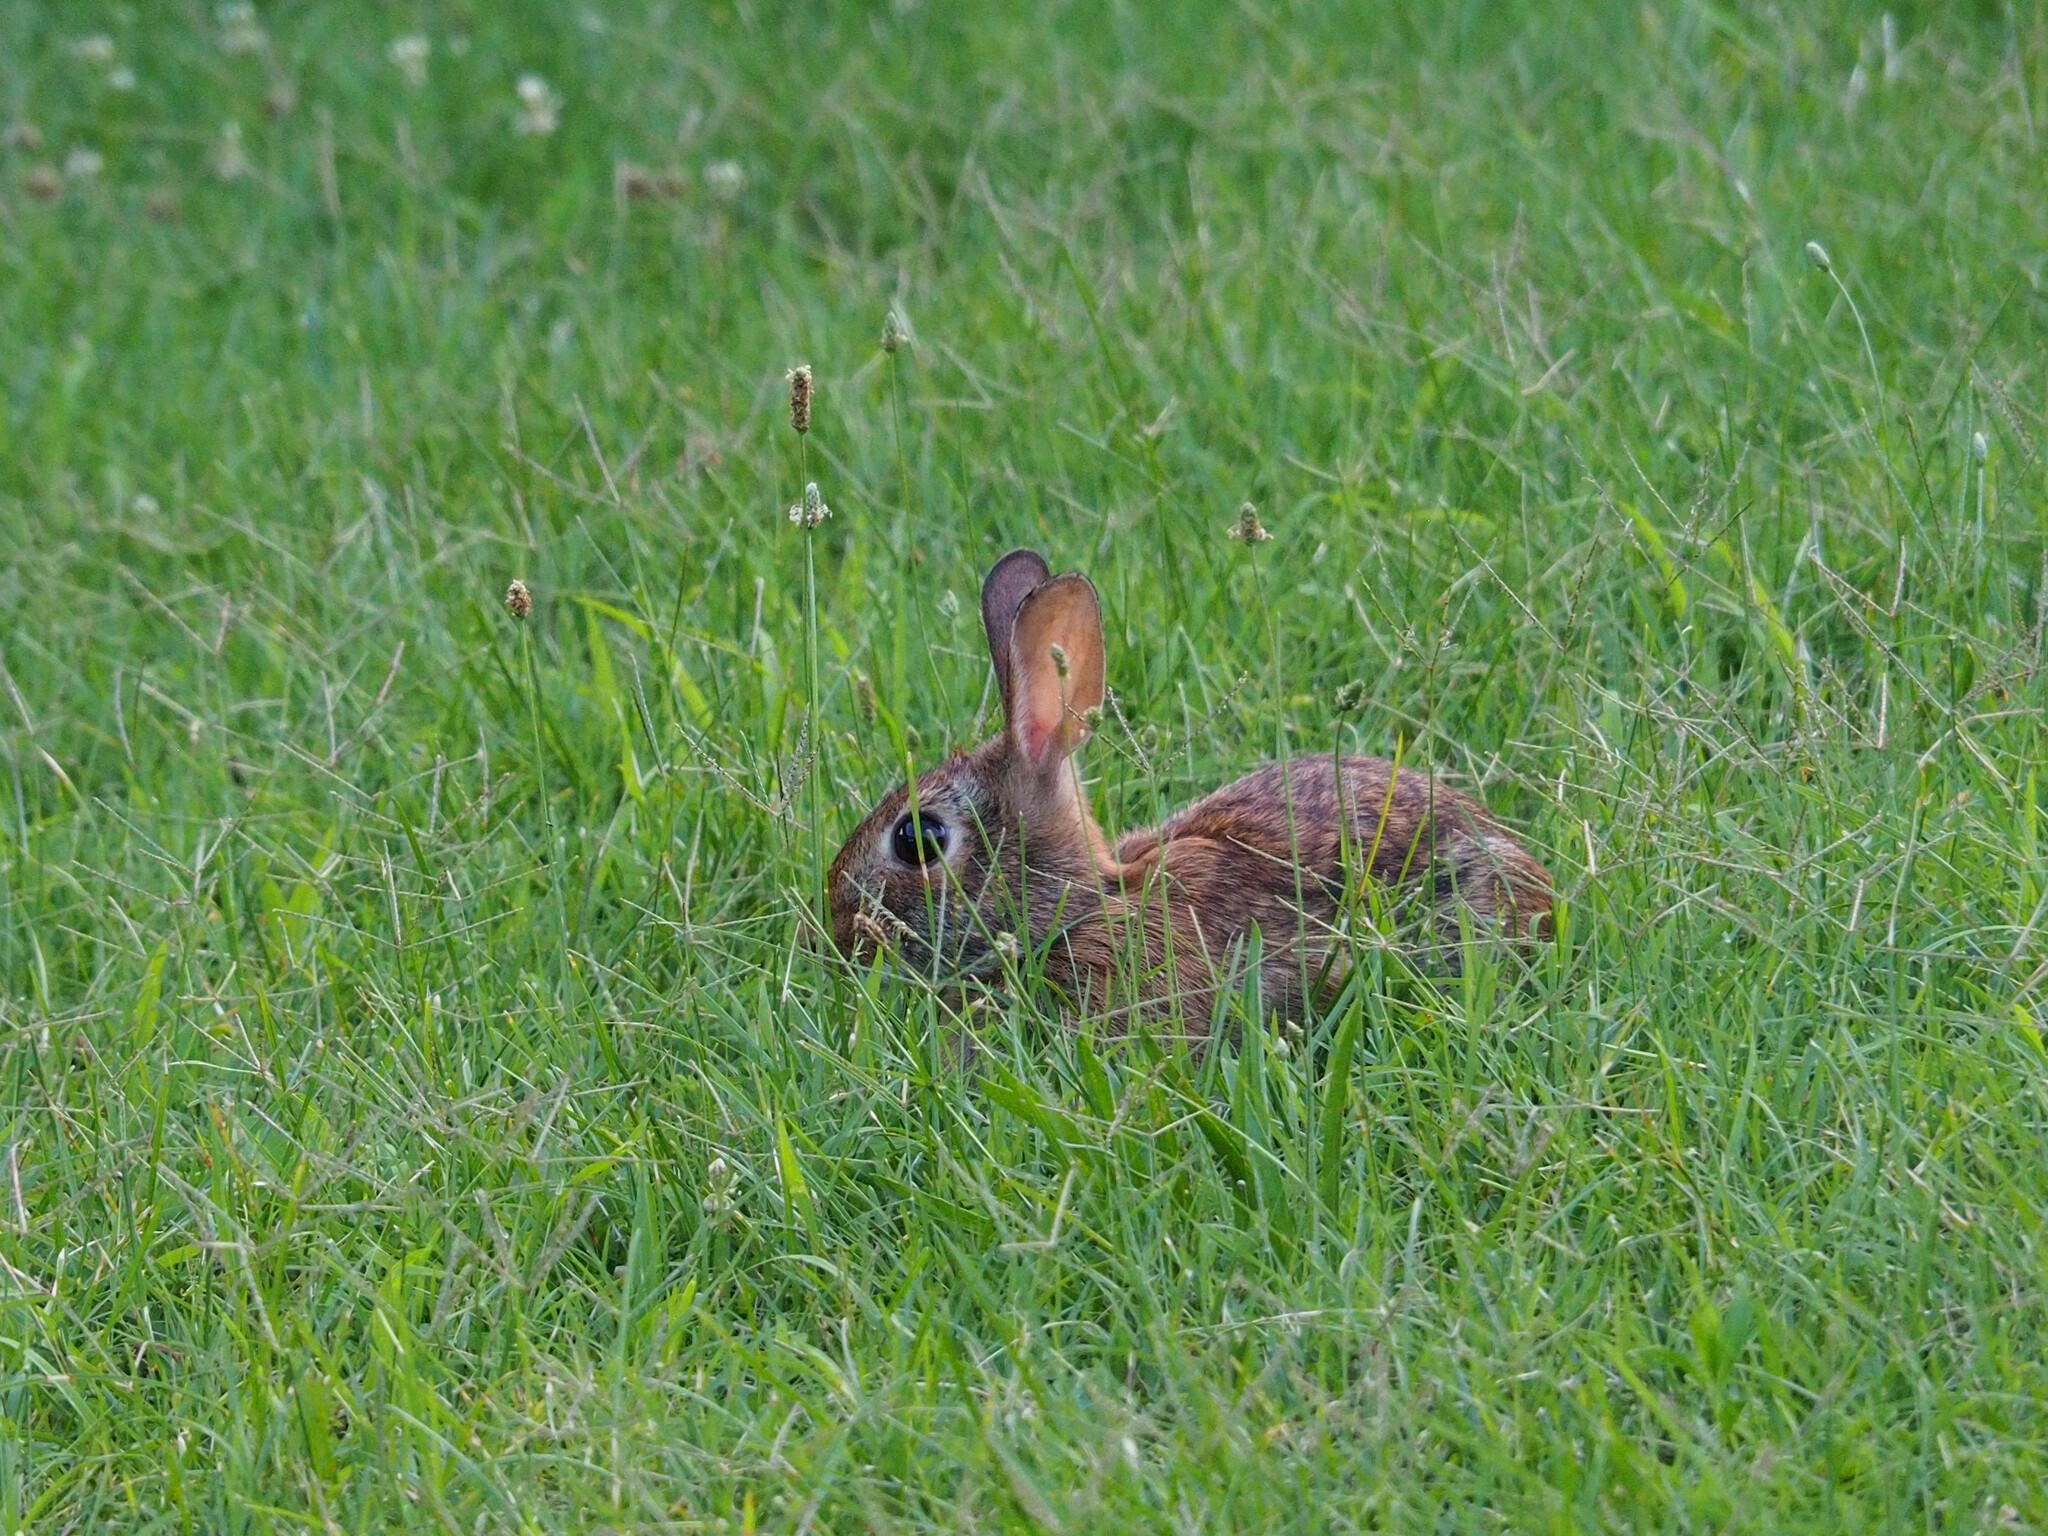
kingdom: Animalia
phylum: Chordata
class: Mammalia
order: Lagomorpha
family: Leporidae
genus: Sylvilagus
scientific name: Sylvilagus floridanus
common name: Eastern cottontail
